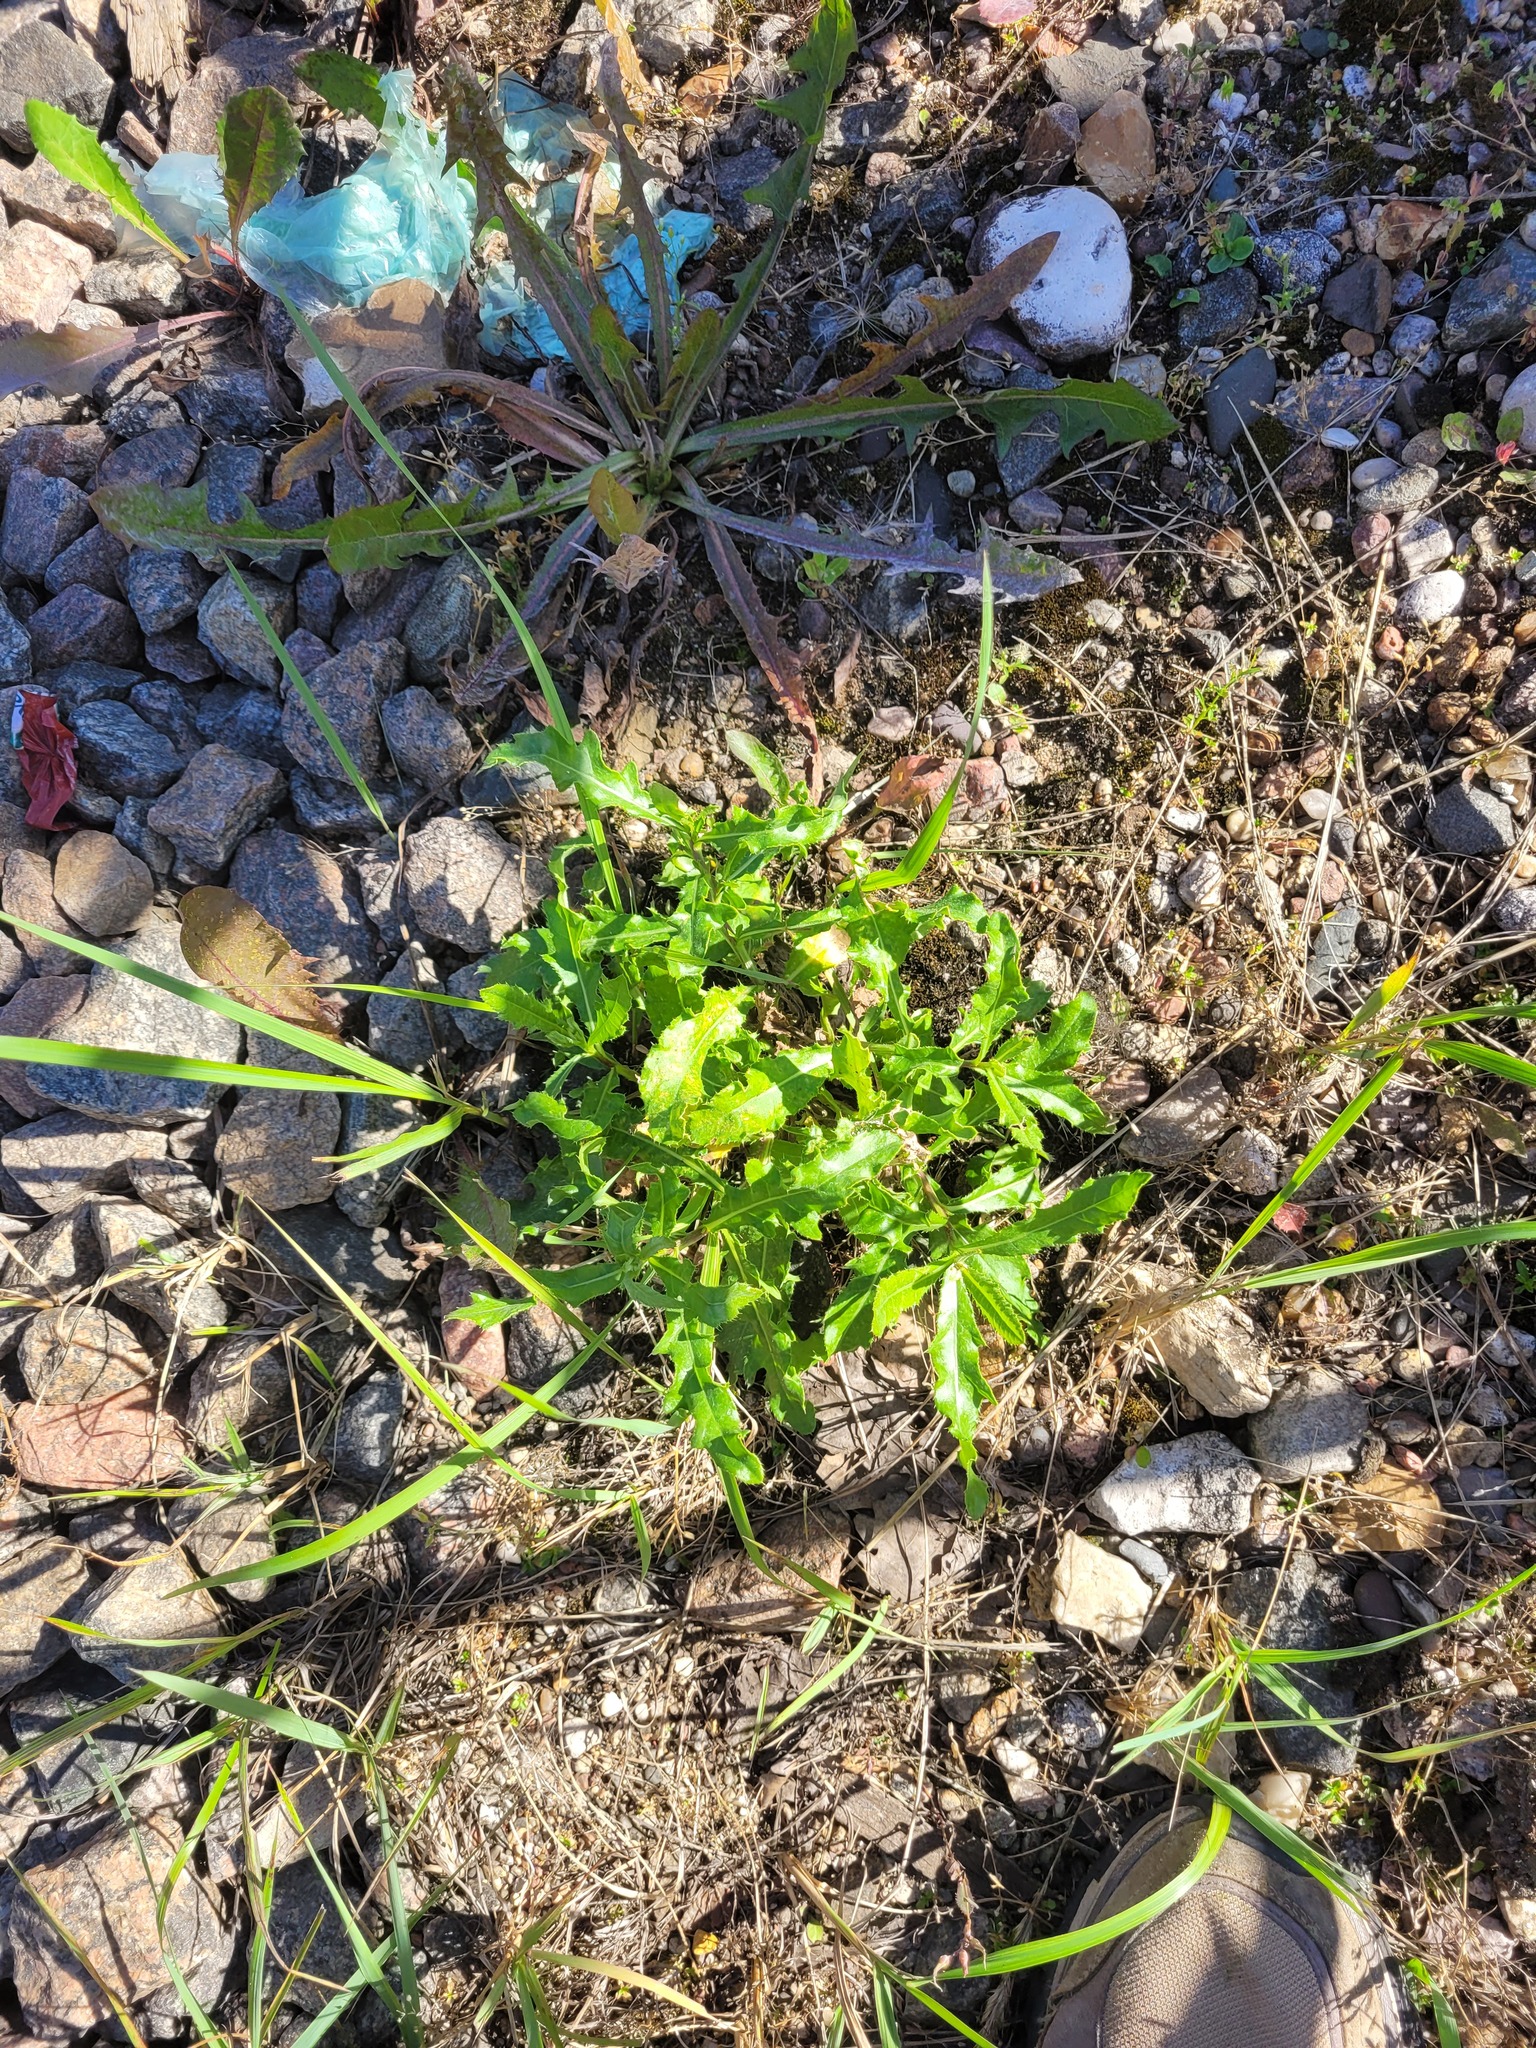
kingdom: Plantae
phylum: Tracheophyta
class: Magnoliopsida
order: Asterales
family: Asteraceae
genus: Cirsium
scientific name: Cirsium arvense
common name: Creeping thistle
